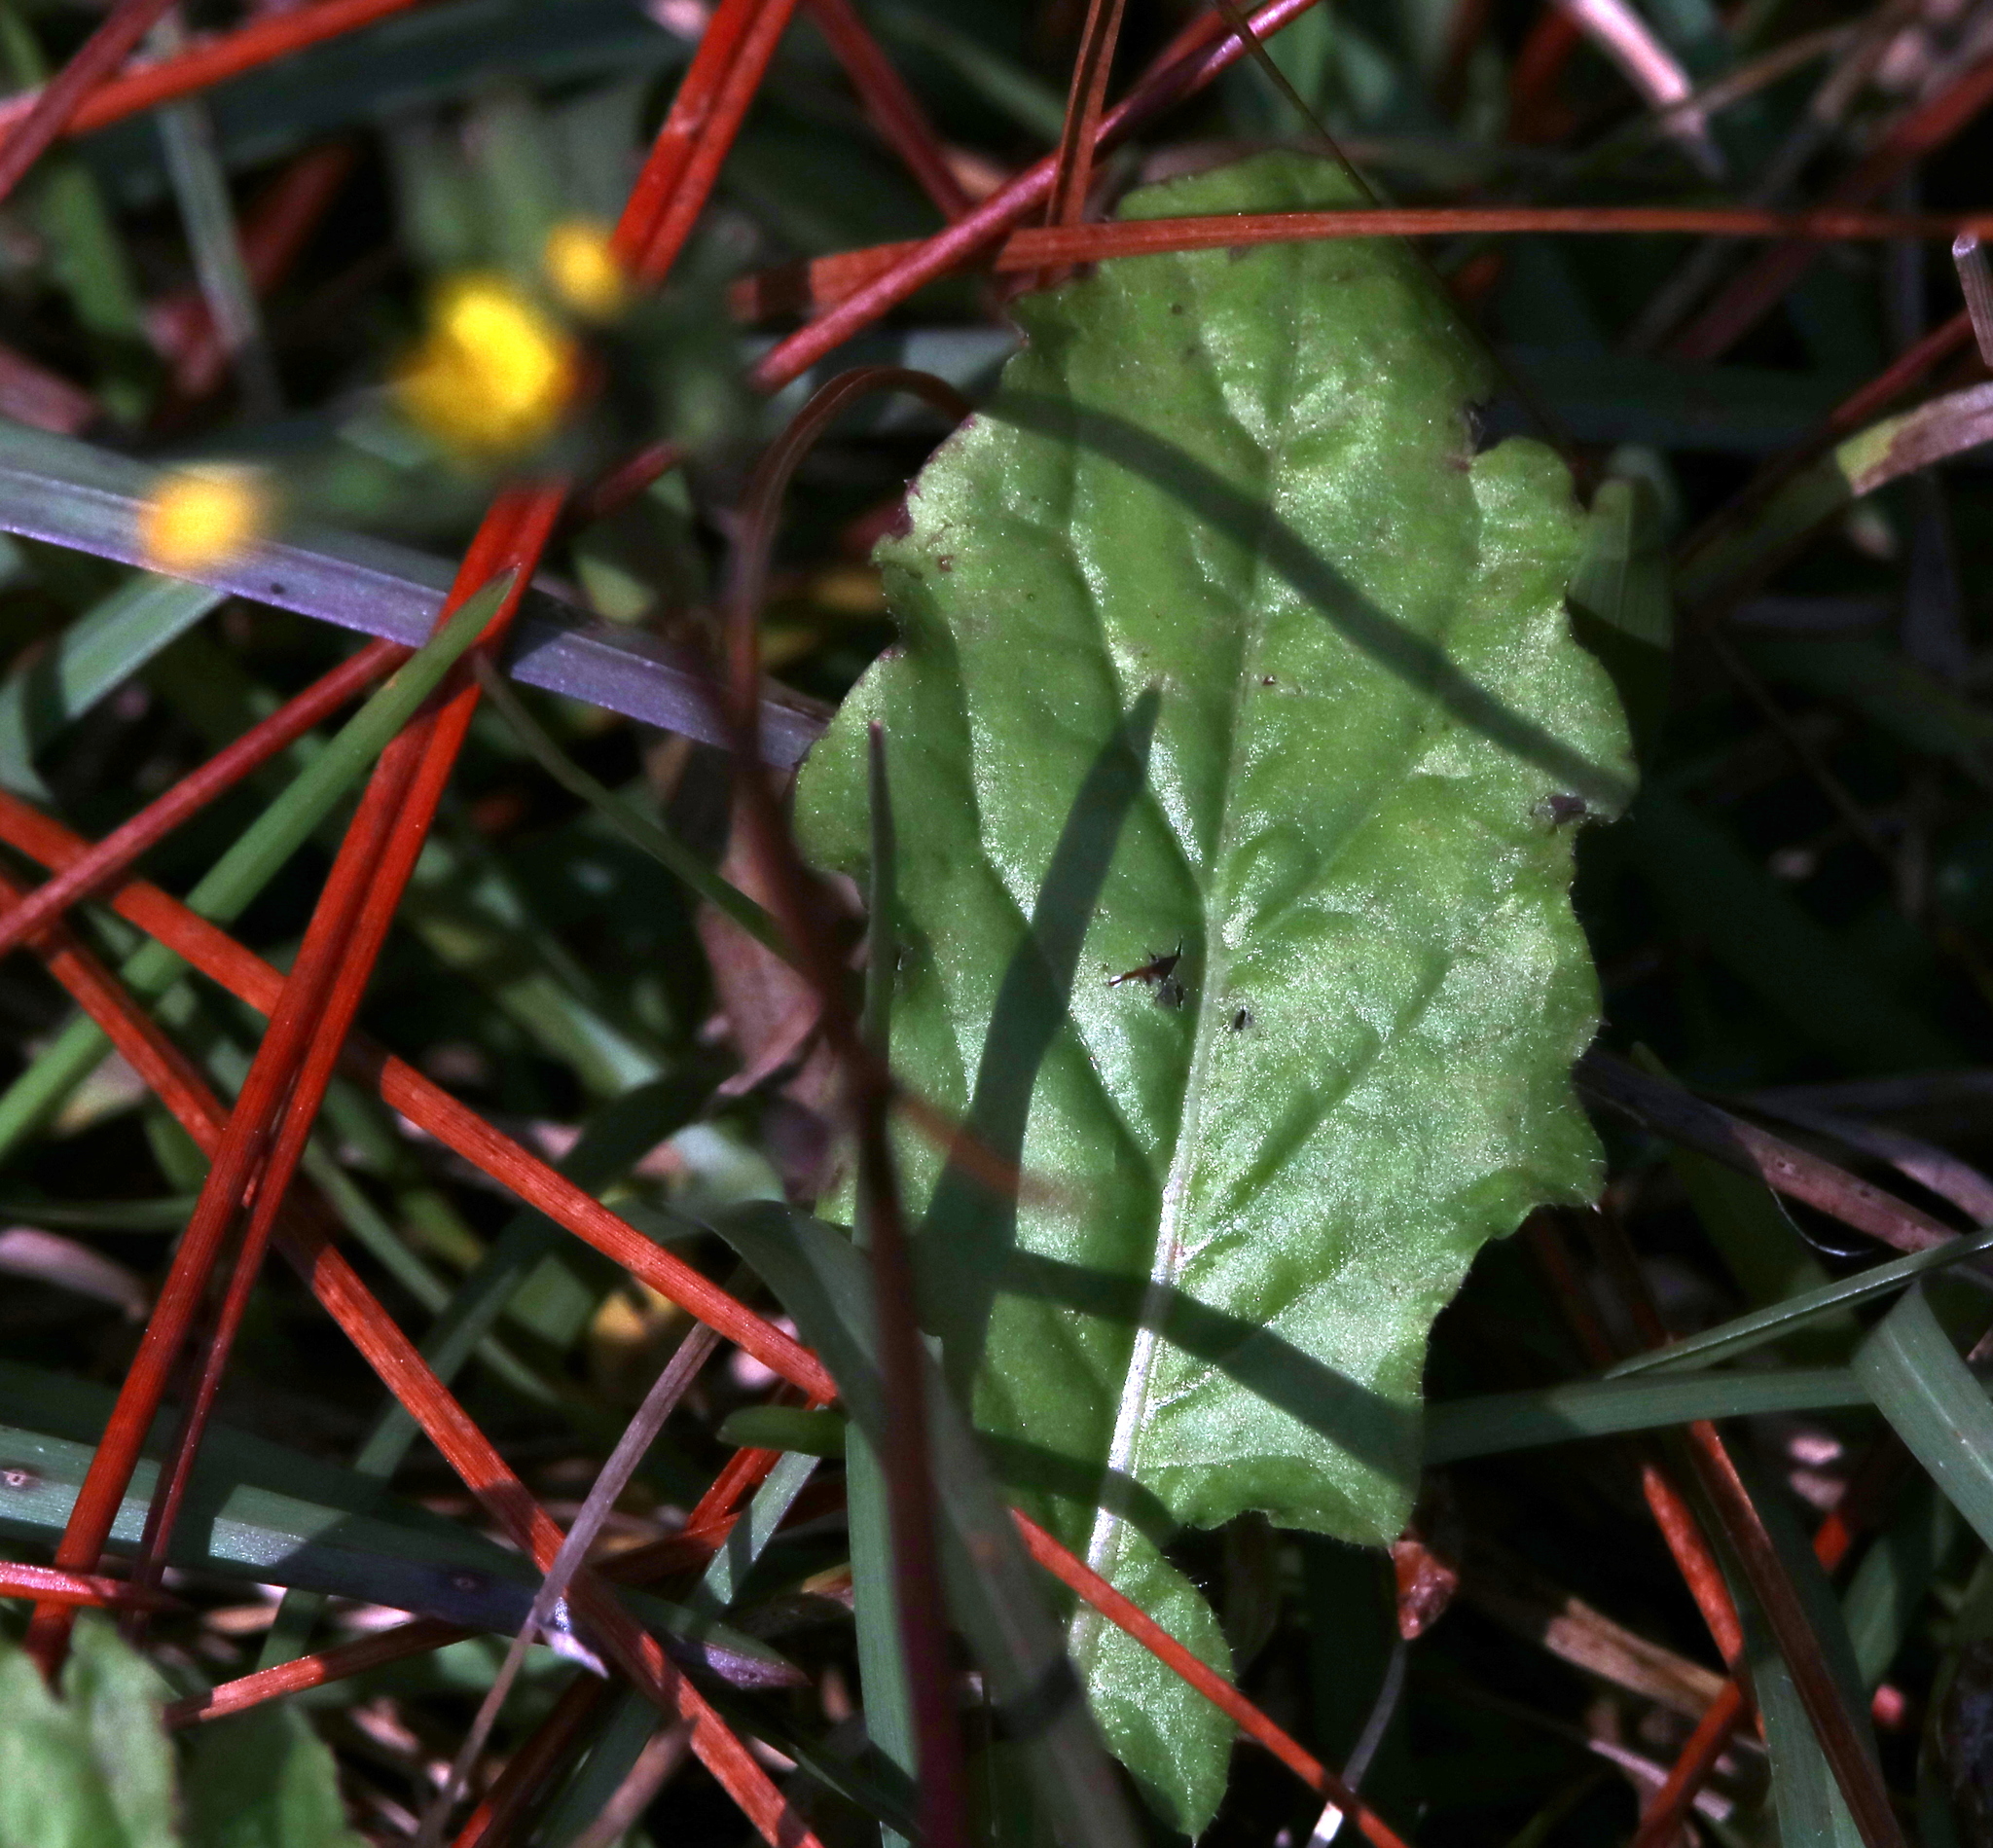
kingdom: Plantae
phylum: Tracheophyta
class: Magnoliopsida
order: Asterales
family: Asteraceae
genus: Youngia
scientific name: Youngia japonica
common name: Oriental false hawksbeard
